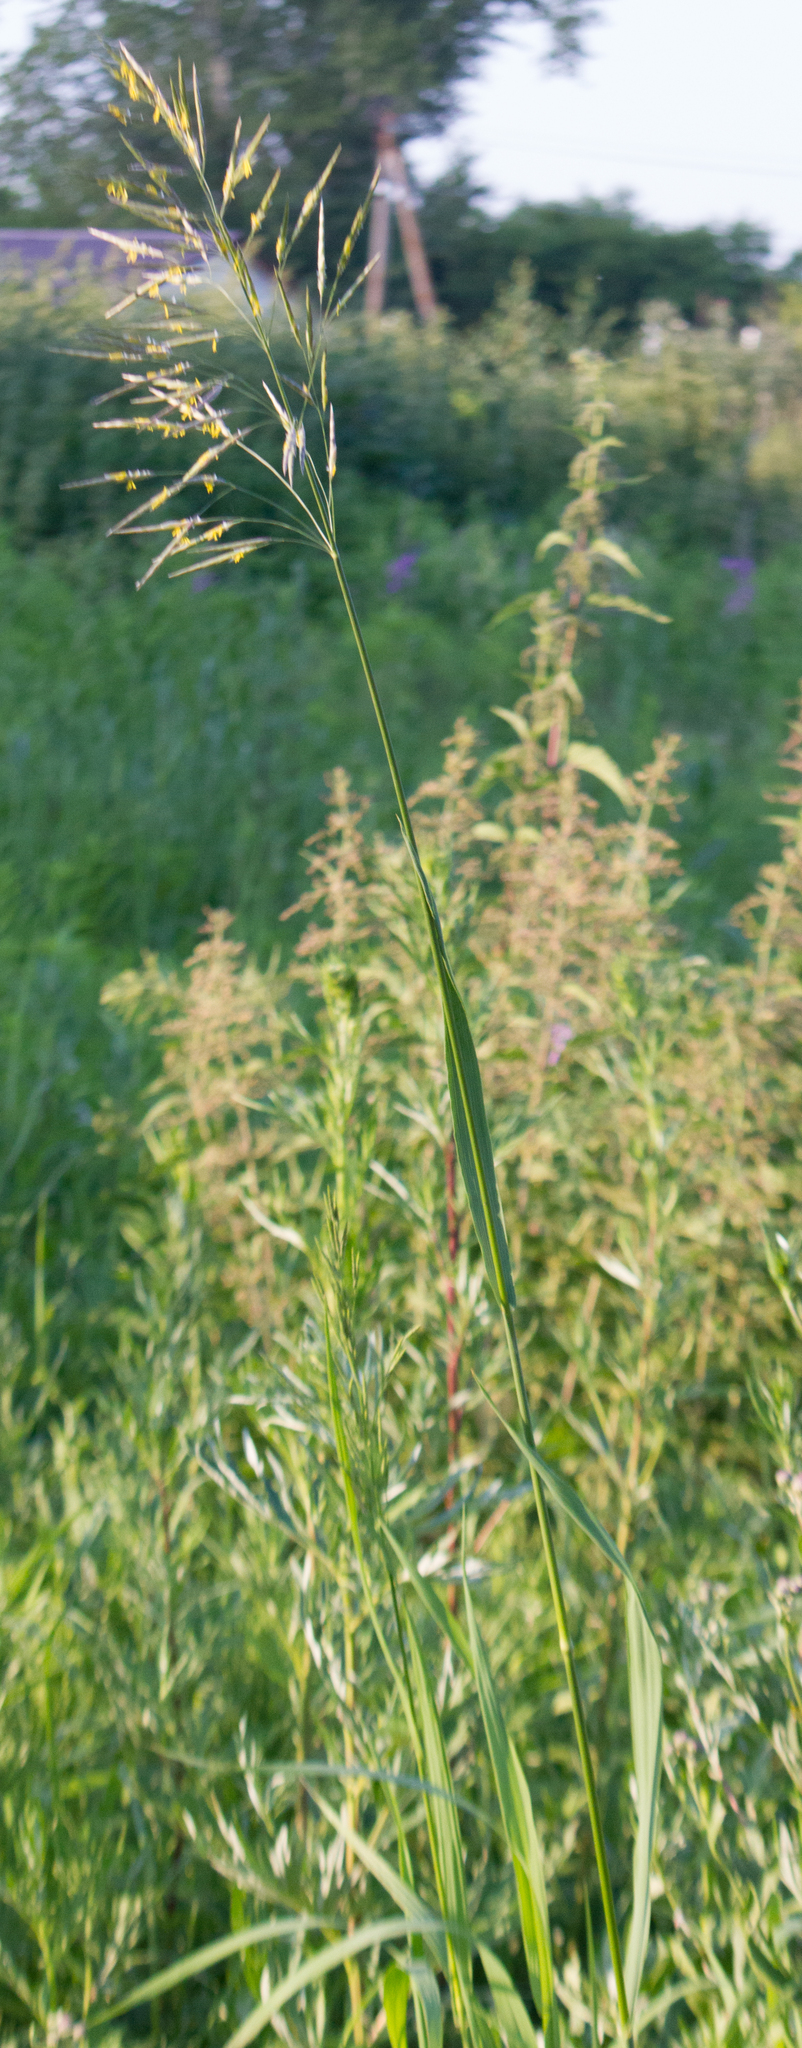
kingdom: Plantae
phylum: Tracheophyta
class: Liliopsida
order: Poales
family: Poaceae
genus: Bromus
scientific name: Bromus inermis
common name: Smooth brome
